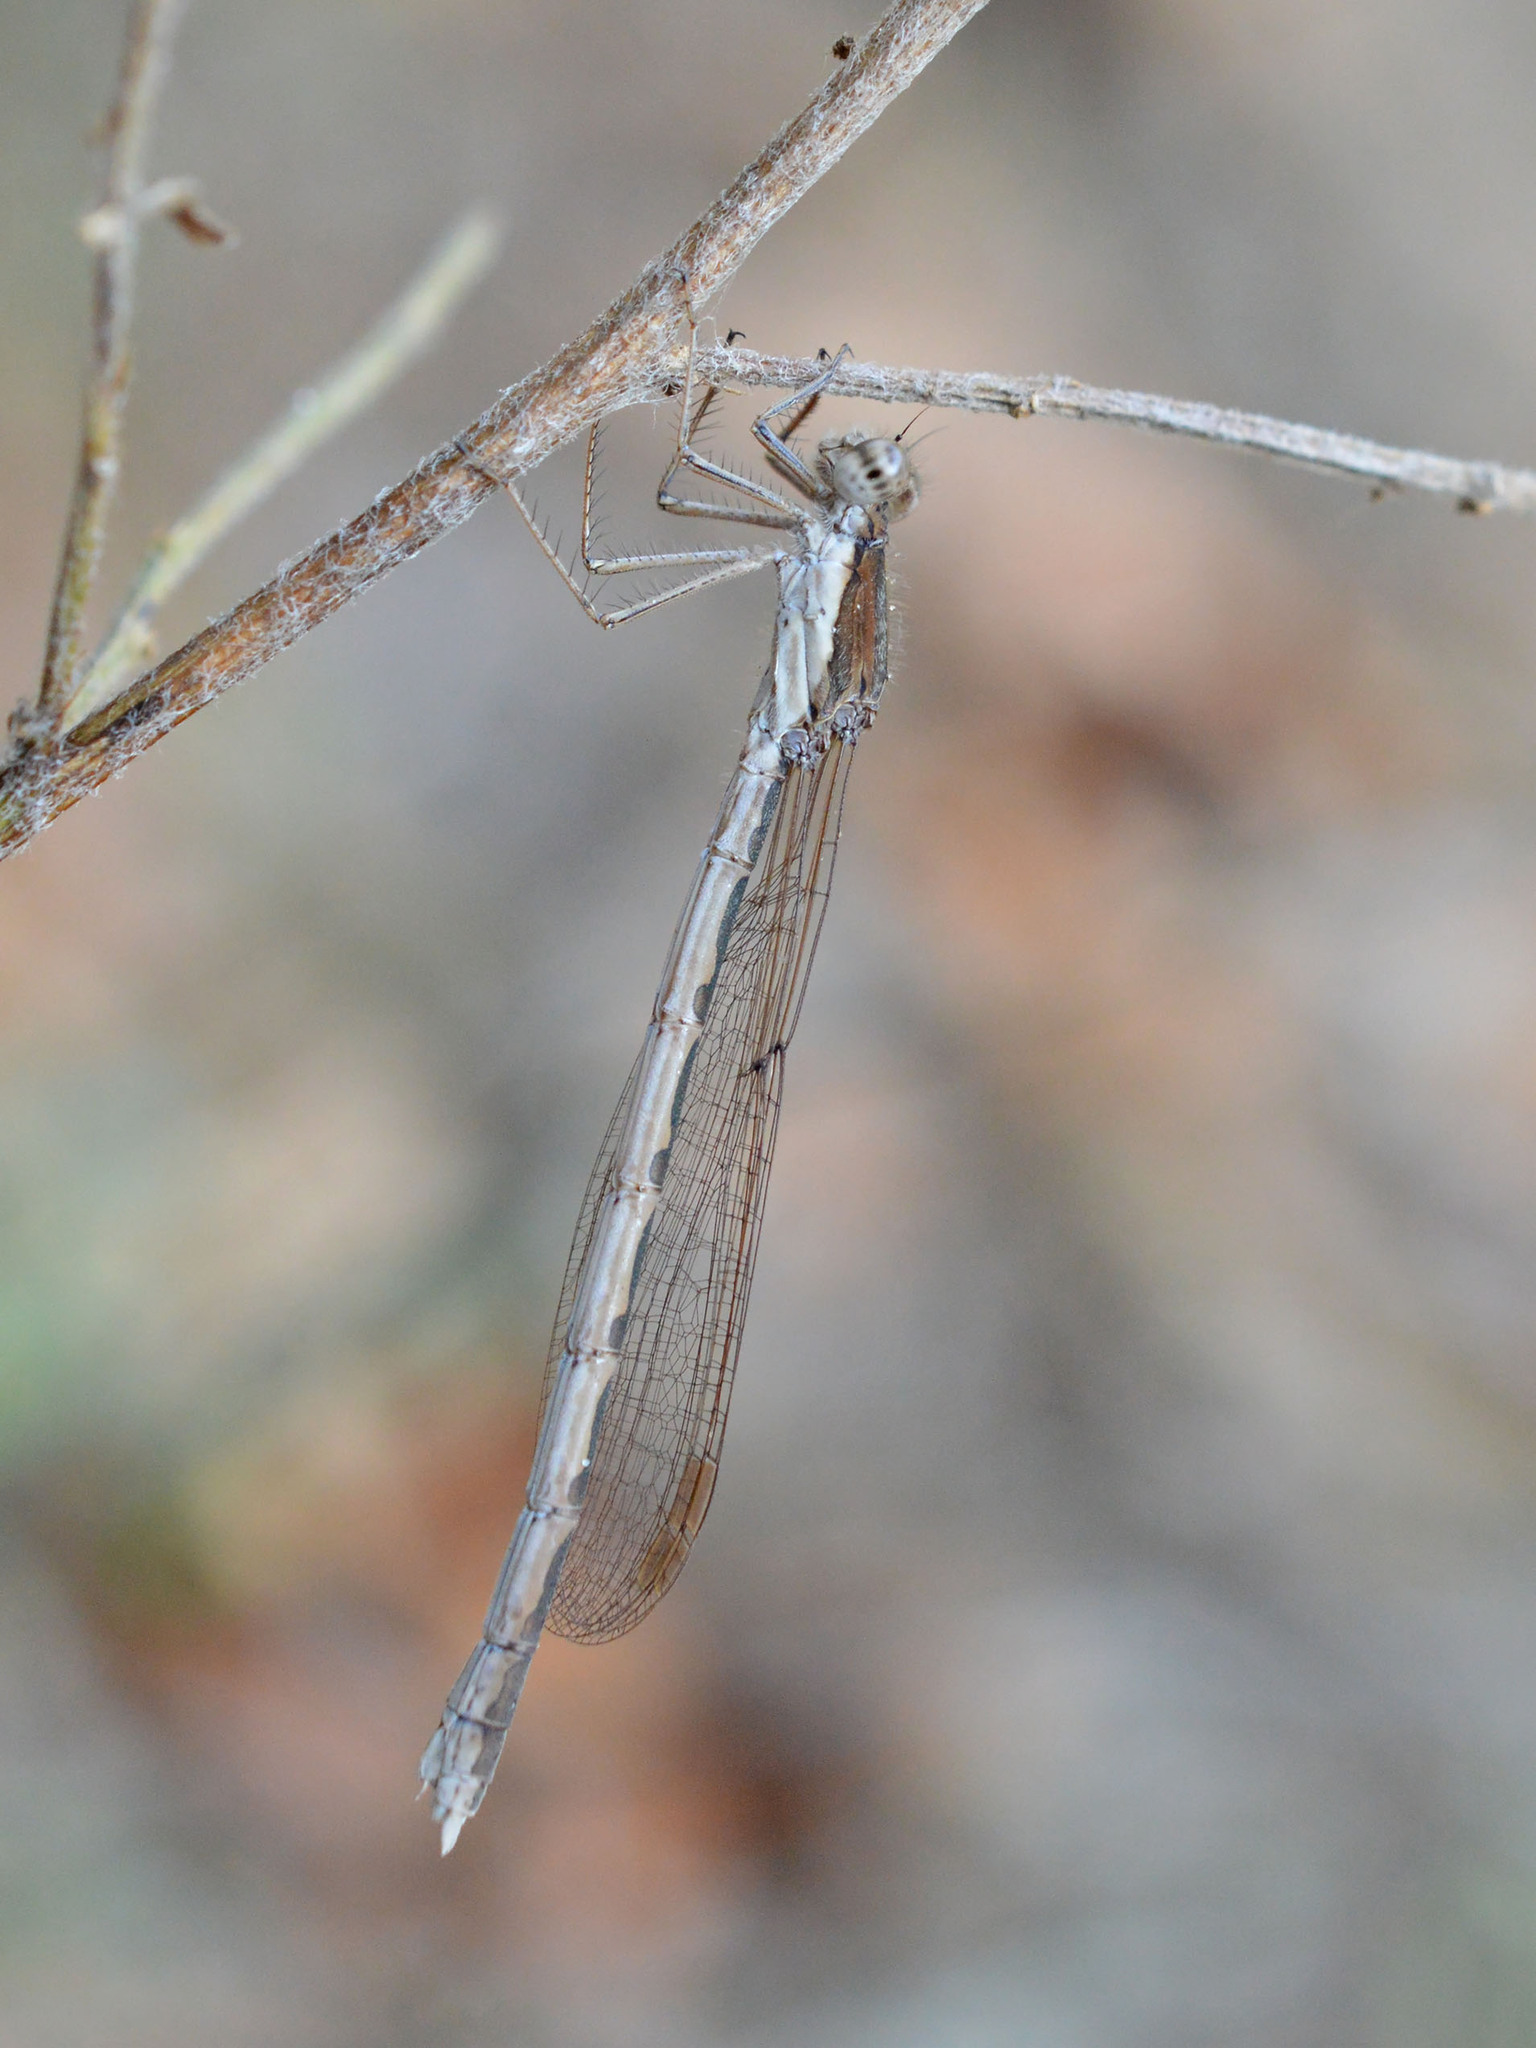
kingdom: Animalia
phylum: Arthropoda
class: Insecta
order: Odonata
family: Lestidae
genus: Sympecma
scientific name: Sympecma fusca
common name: Common winter damsel
